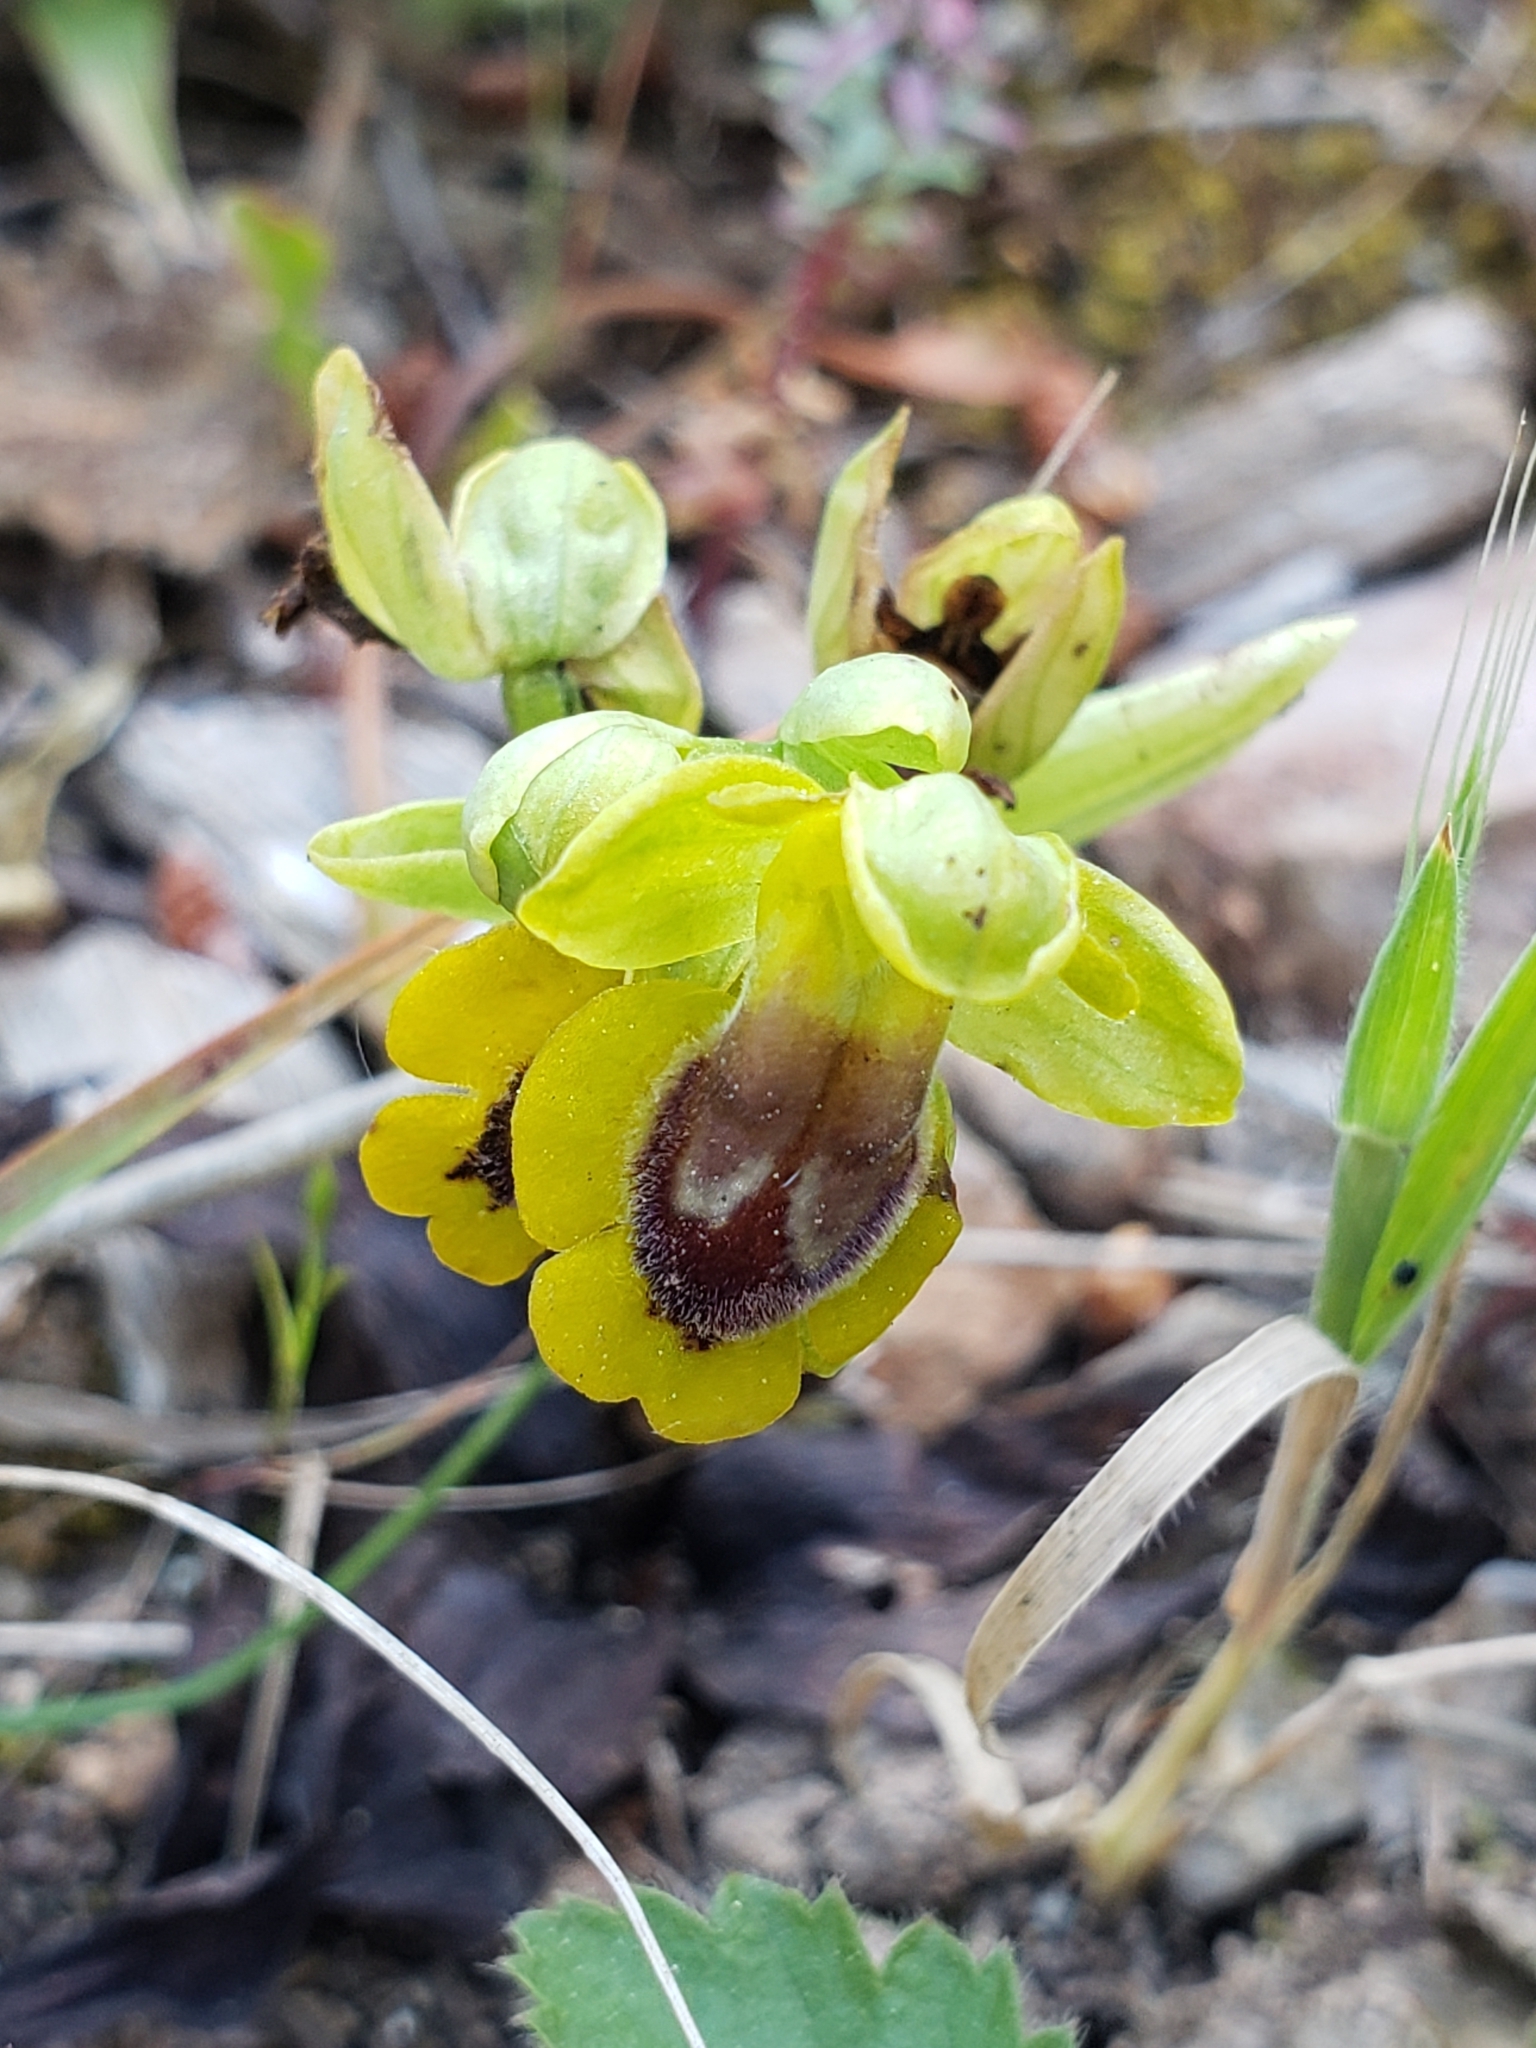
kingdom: Plantae
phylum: Tracheophyta
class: Liliopsida
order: Asparagales
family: Orchidaceae
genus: Ophrys
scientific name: Ophrys lutea
